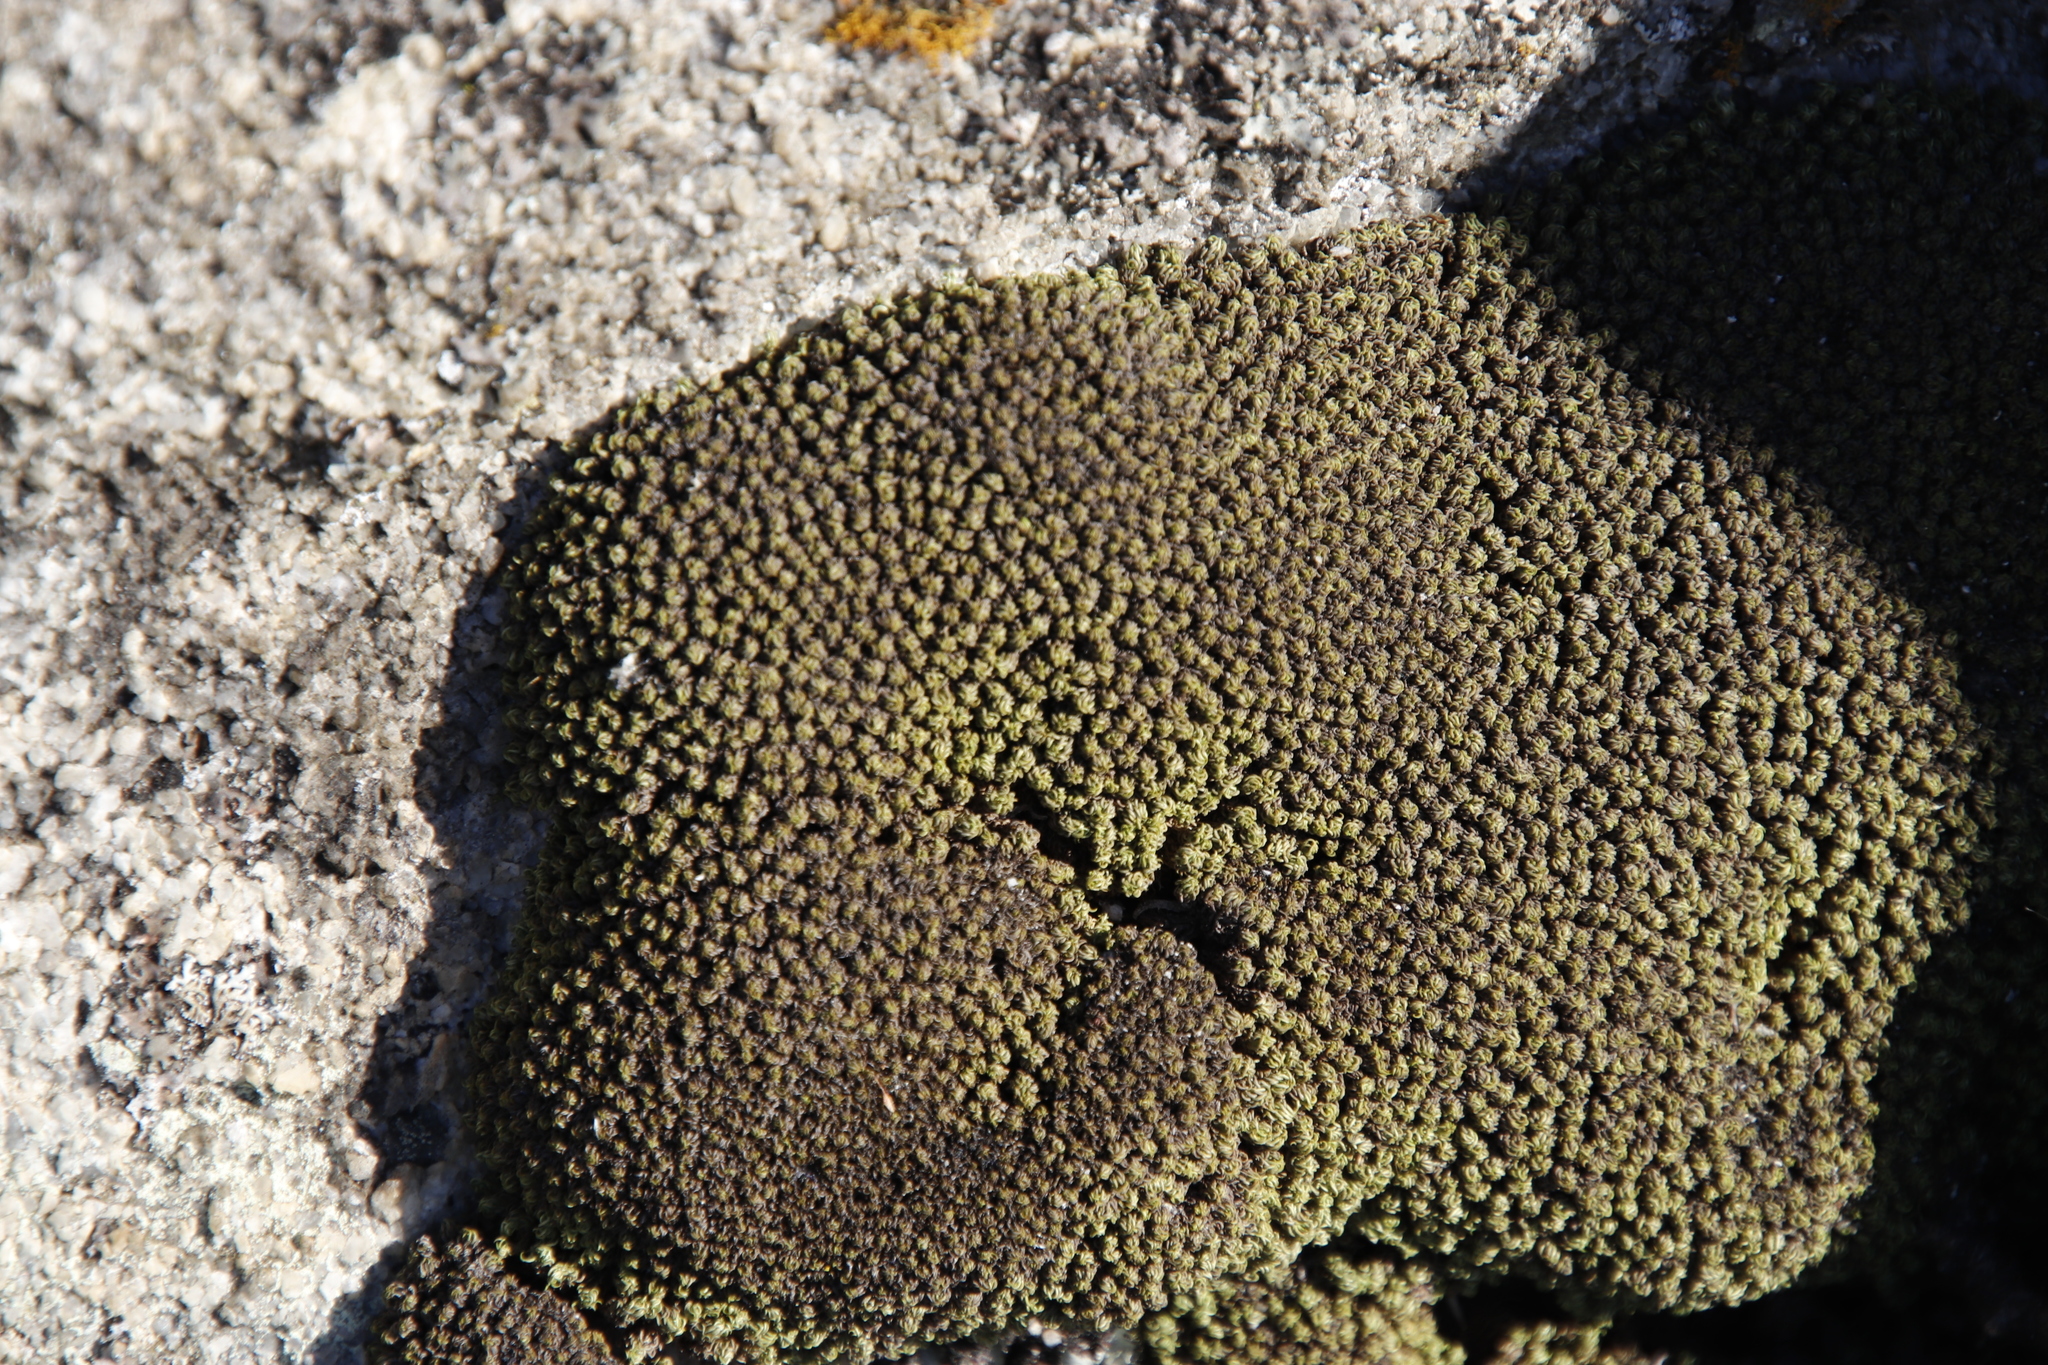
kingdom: Plantae
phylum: Bryophyta
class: Bryopsida
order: Pottiales
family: Pottiaceae
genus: Tortula
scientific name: Tortula muralis
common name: Wall screw-moss
